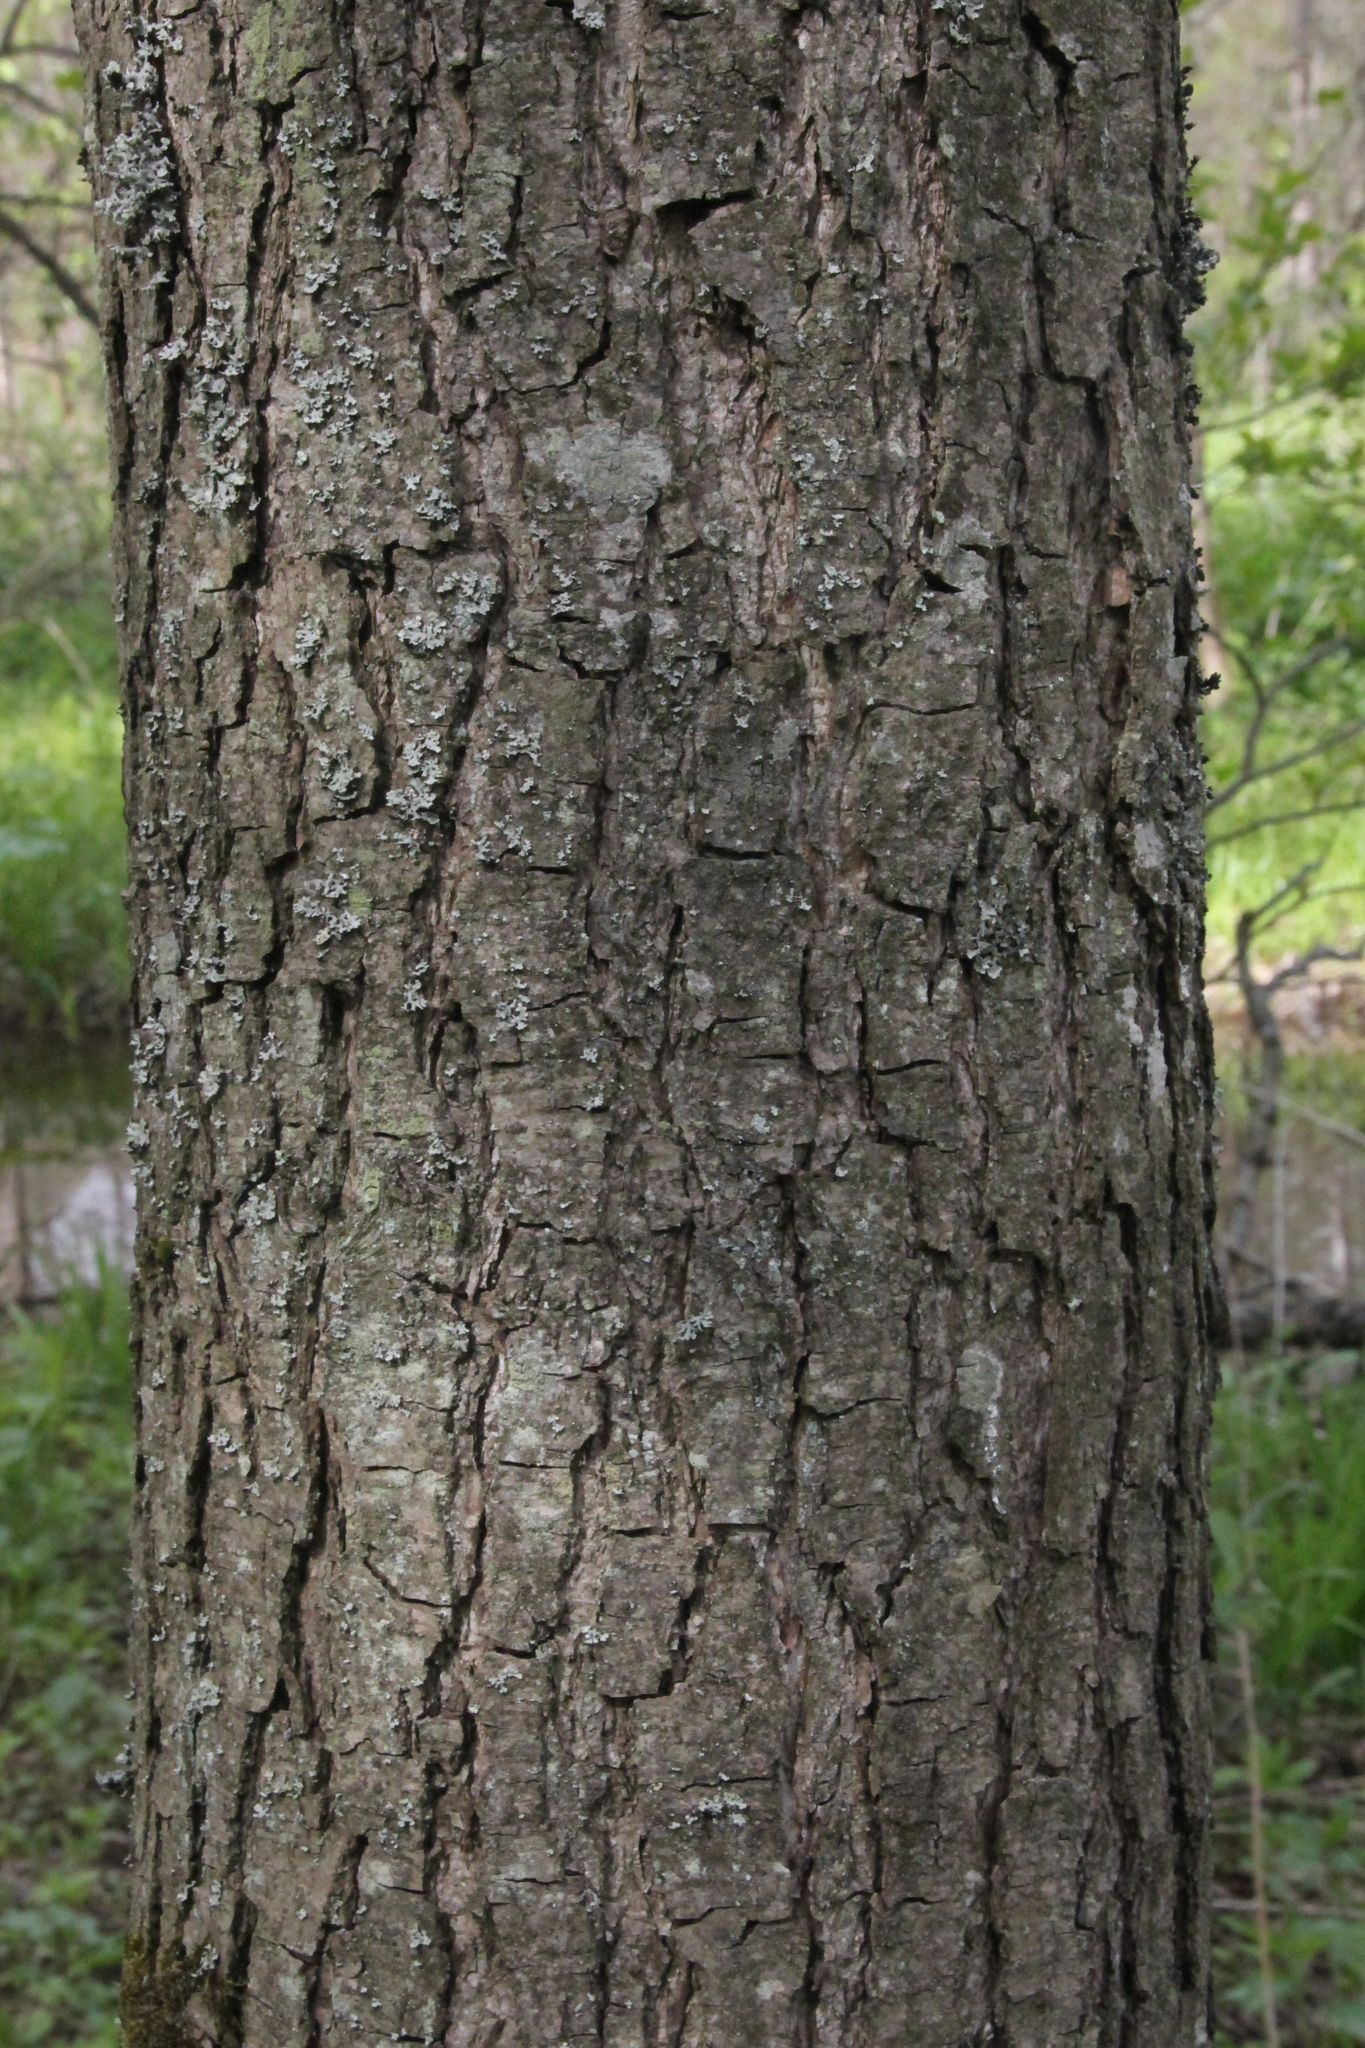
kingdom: Plantae
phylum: Tracheophyta
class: Magnoliopsida
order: Fagales
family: Betulaceae
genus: Alnus
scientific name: Alnus glutinosa
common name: Black alder
